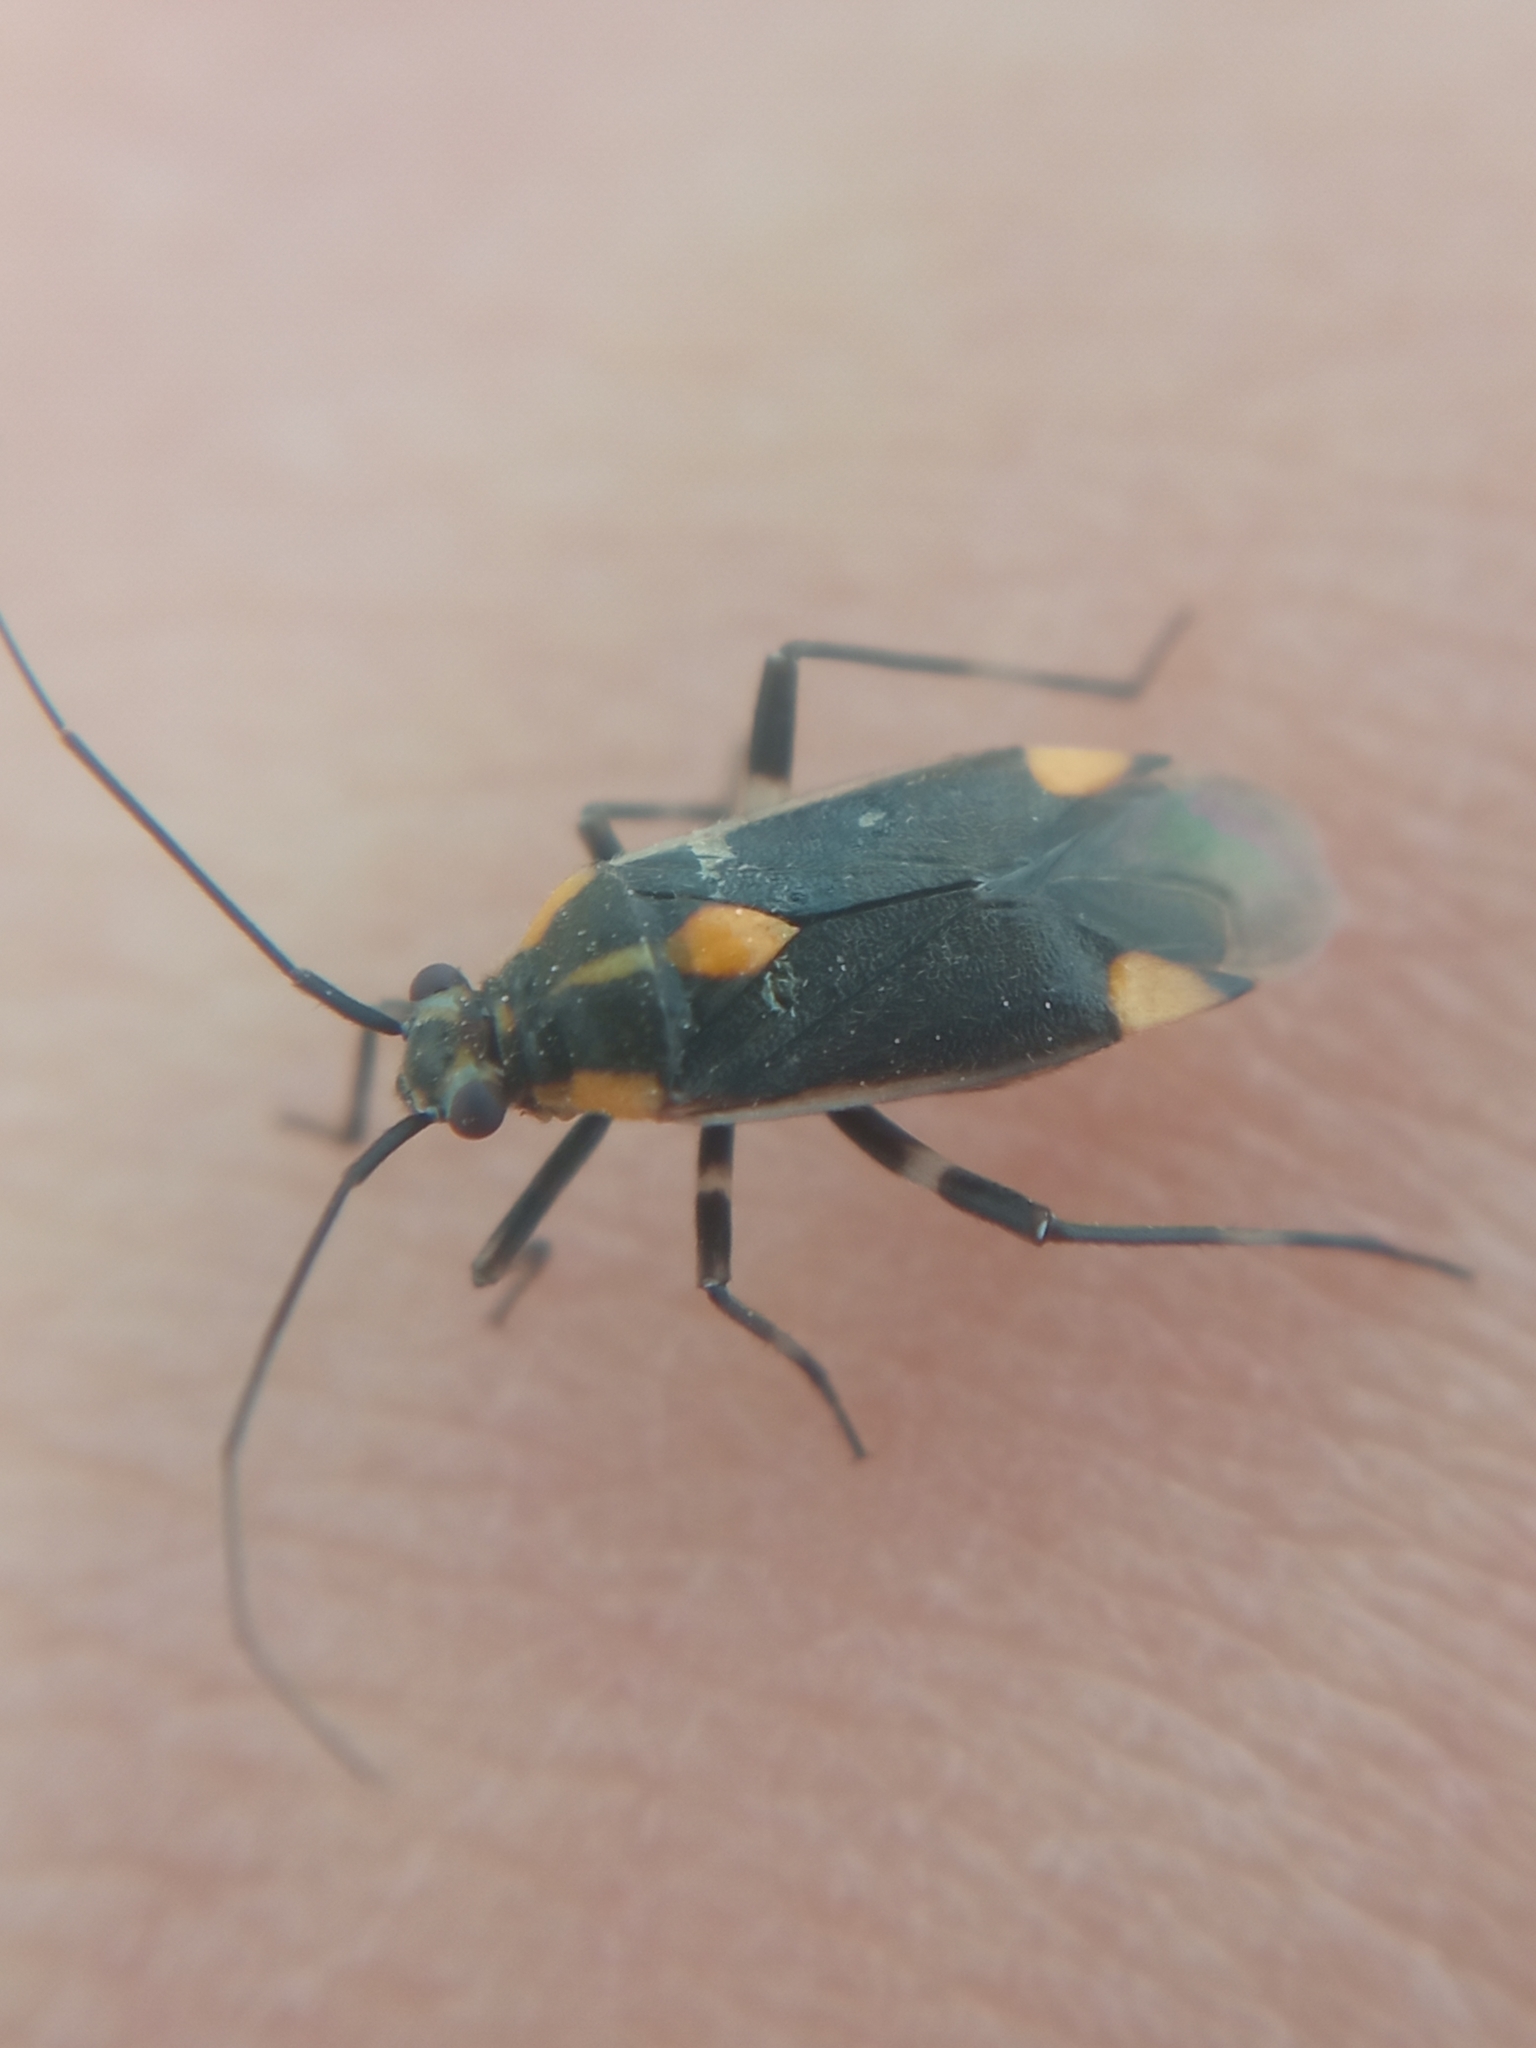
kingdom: Animalia
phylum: Arthropoda
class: Insecta
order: Hemiptera
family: Miridae
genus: Capsodes
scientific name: Capsodes flavomarginatus
